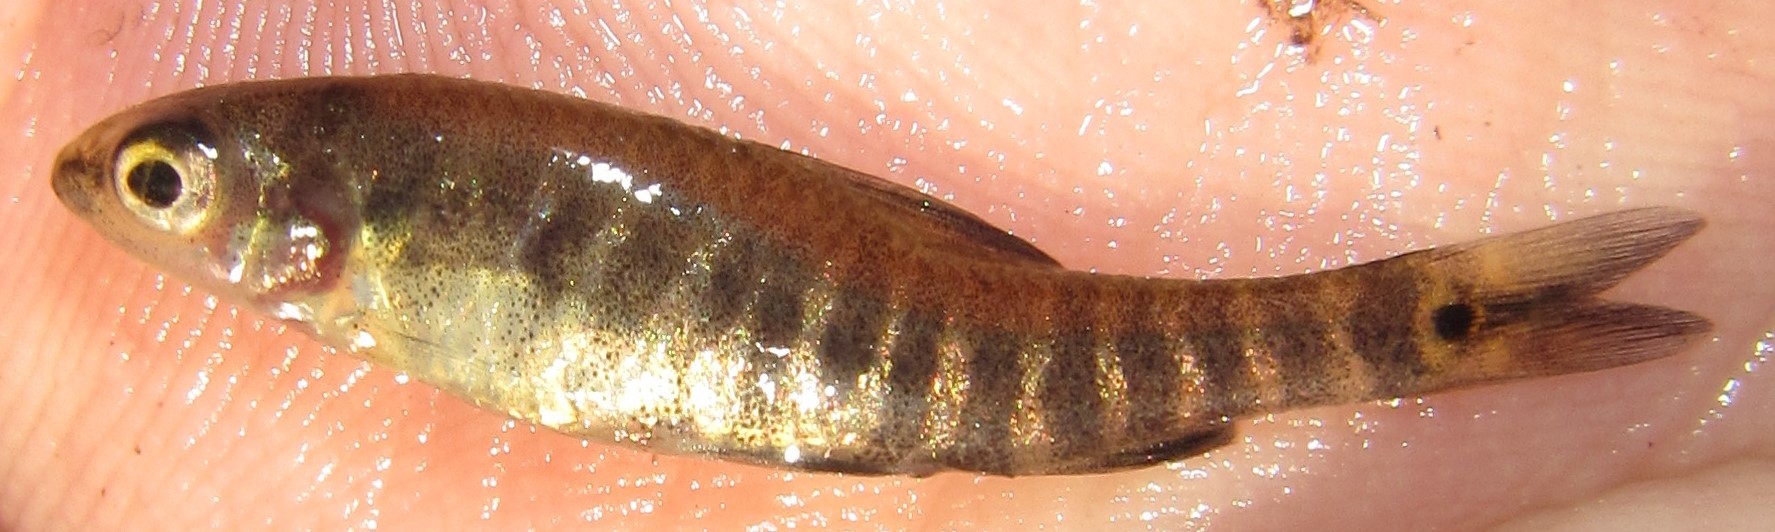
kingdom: Animalia
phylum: Chordata
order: Characiformes
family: Distichodontidae
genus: Nannocharax
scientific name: Nannocharax machadoi
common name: Dwarf citharine
